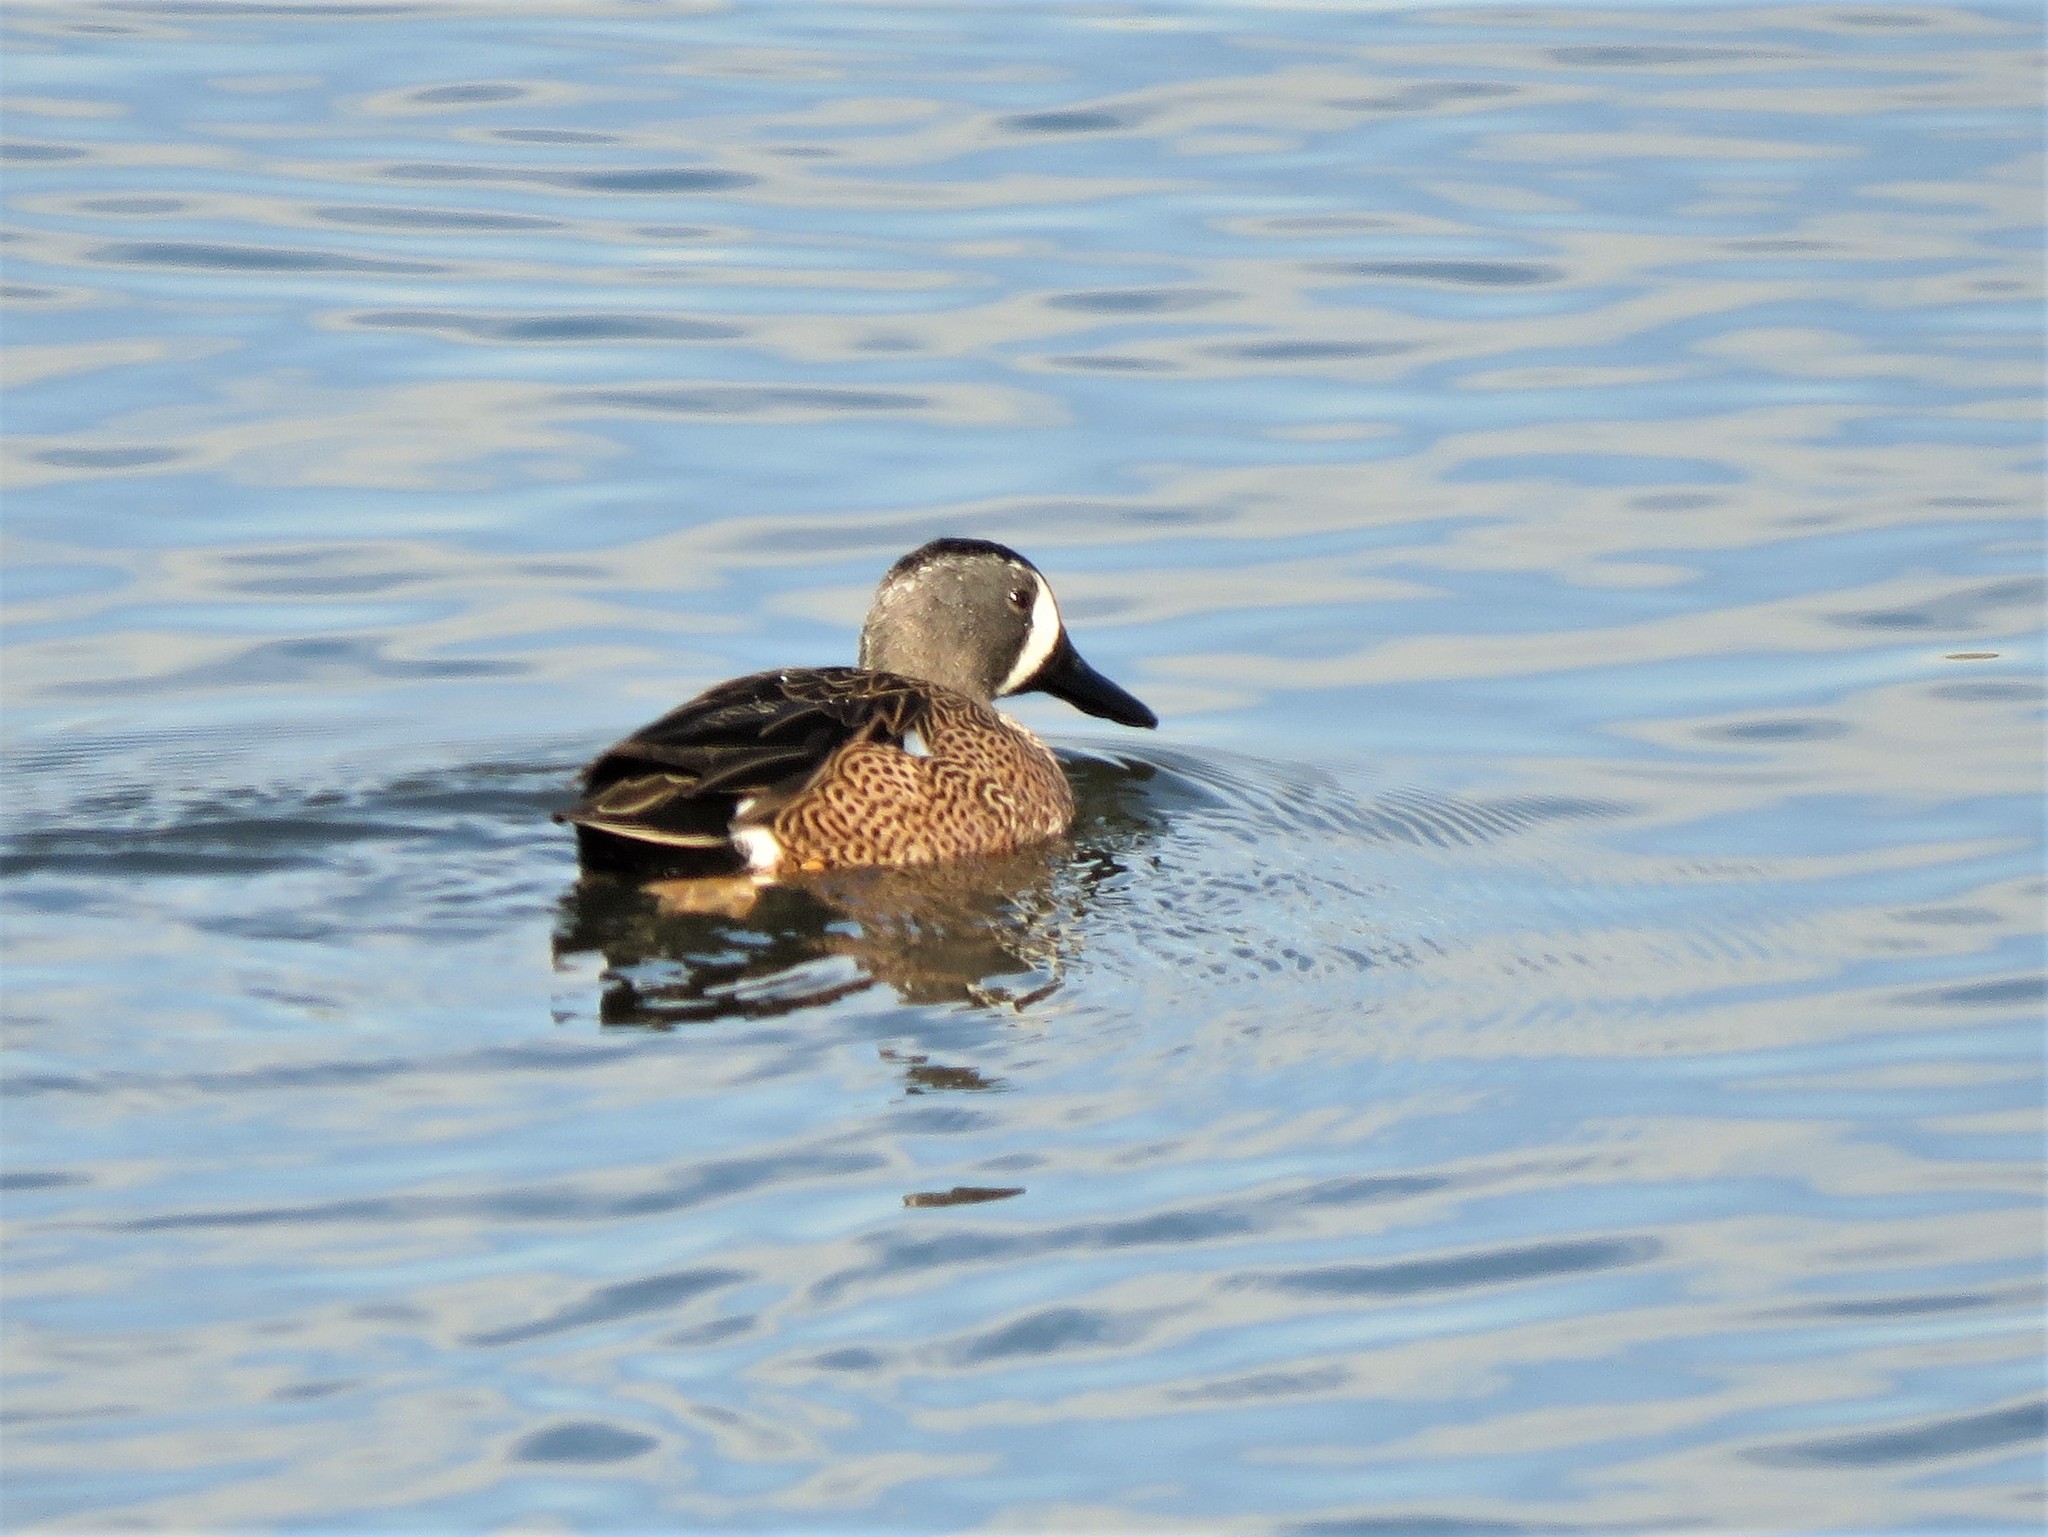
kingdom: Animalia
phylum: Chordata
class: Aves
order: Anseriformes
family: Anatidae
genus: Spatula
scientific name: Spatula discors
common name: Blue-winged teal
